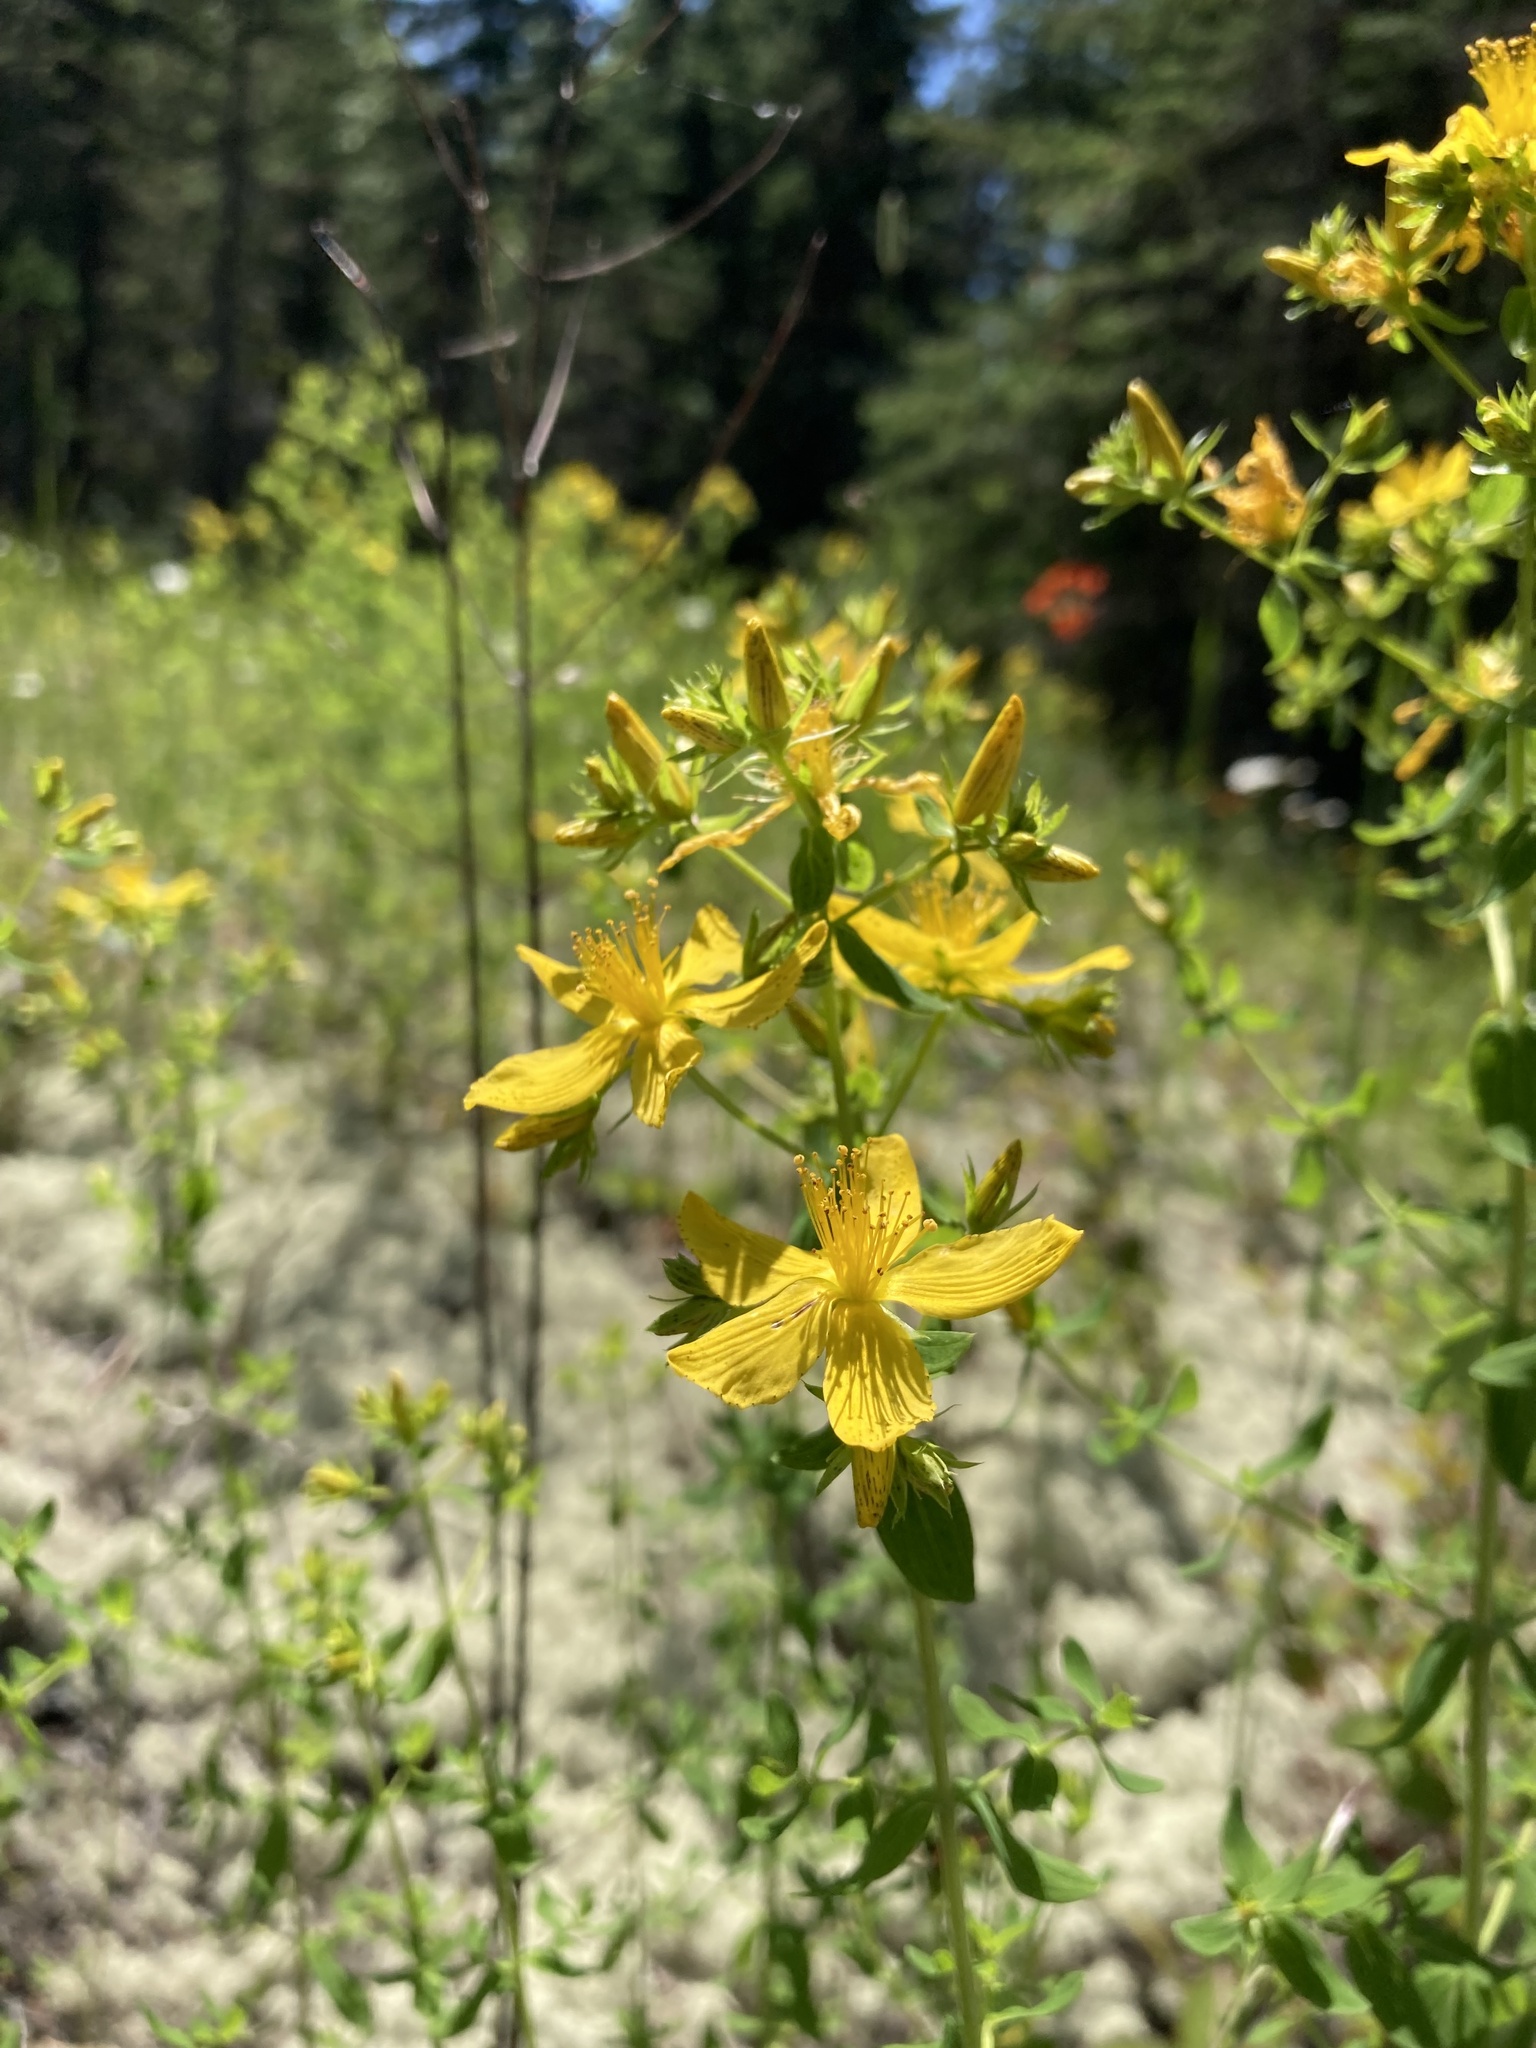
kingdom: Plantae
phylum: Tracheophyta
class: Magnoliopsida
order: Malpighiales
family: Hypericaceae
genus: Hypericum
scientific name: Hypericum perforatum
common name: Common st. johnswort
